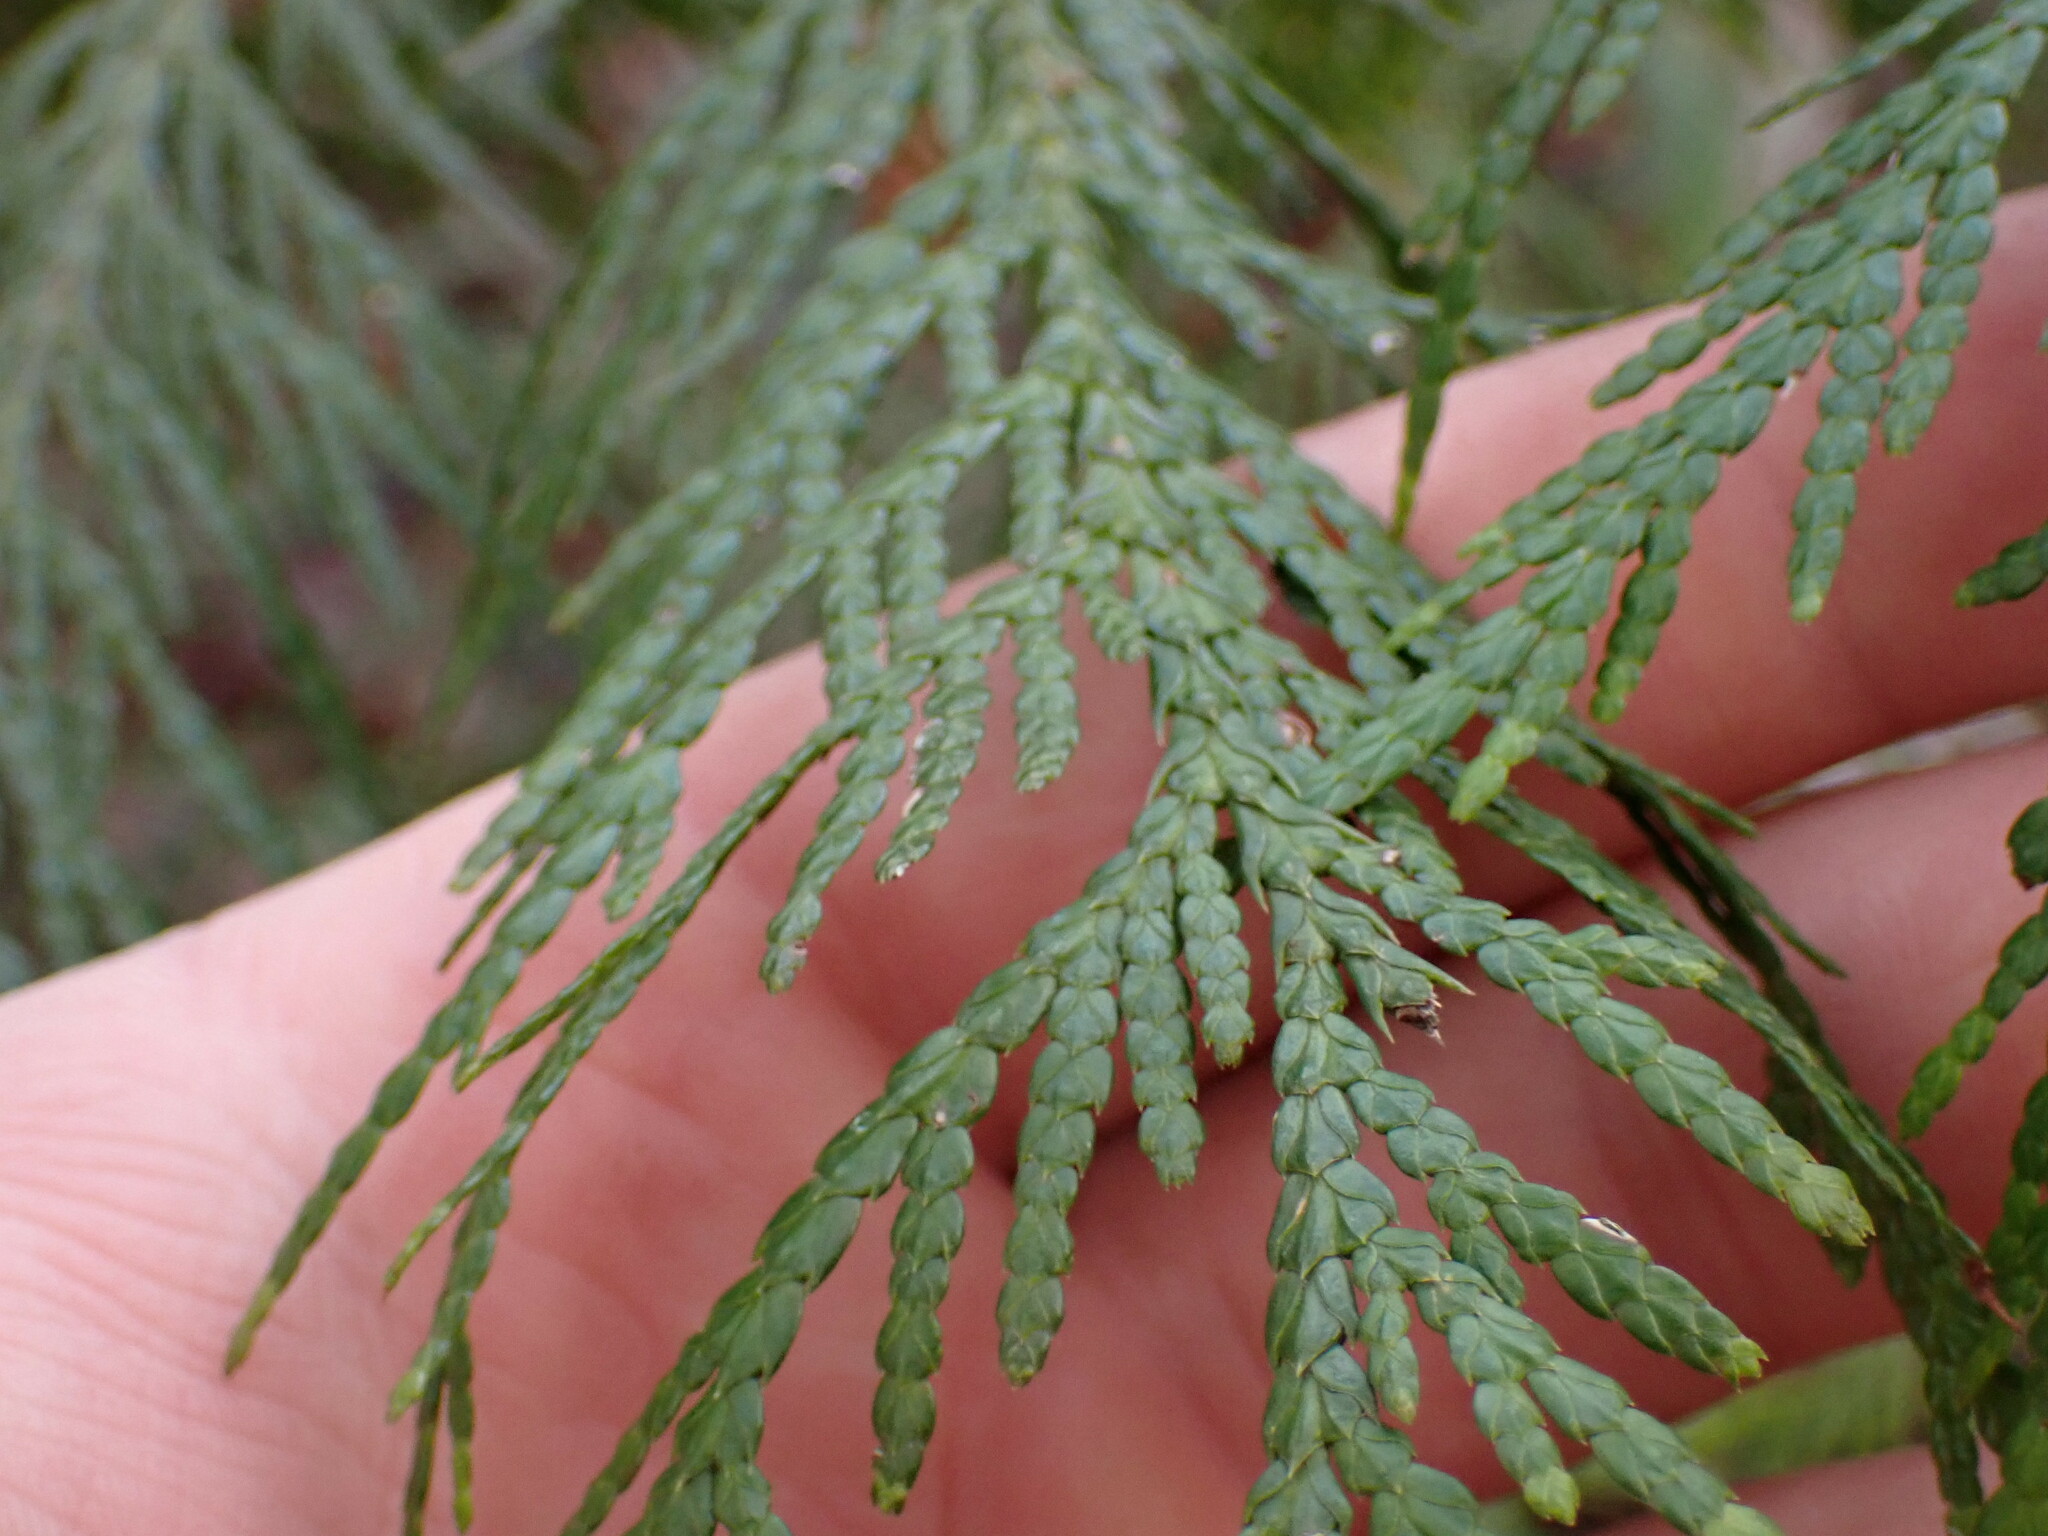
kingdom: Plantae
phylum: Tracheophyta
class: Pinopsida
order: Pinales
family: Cupressaceae
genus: Thuja
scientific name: Thuja plicata
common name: Western red-cedar
